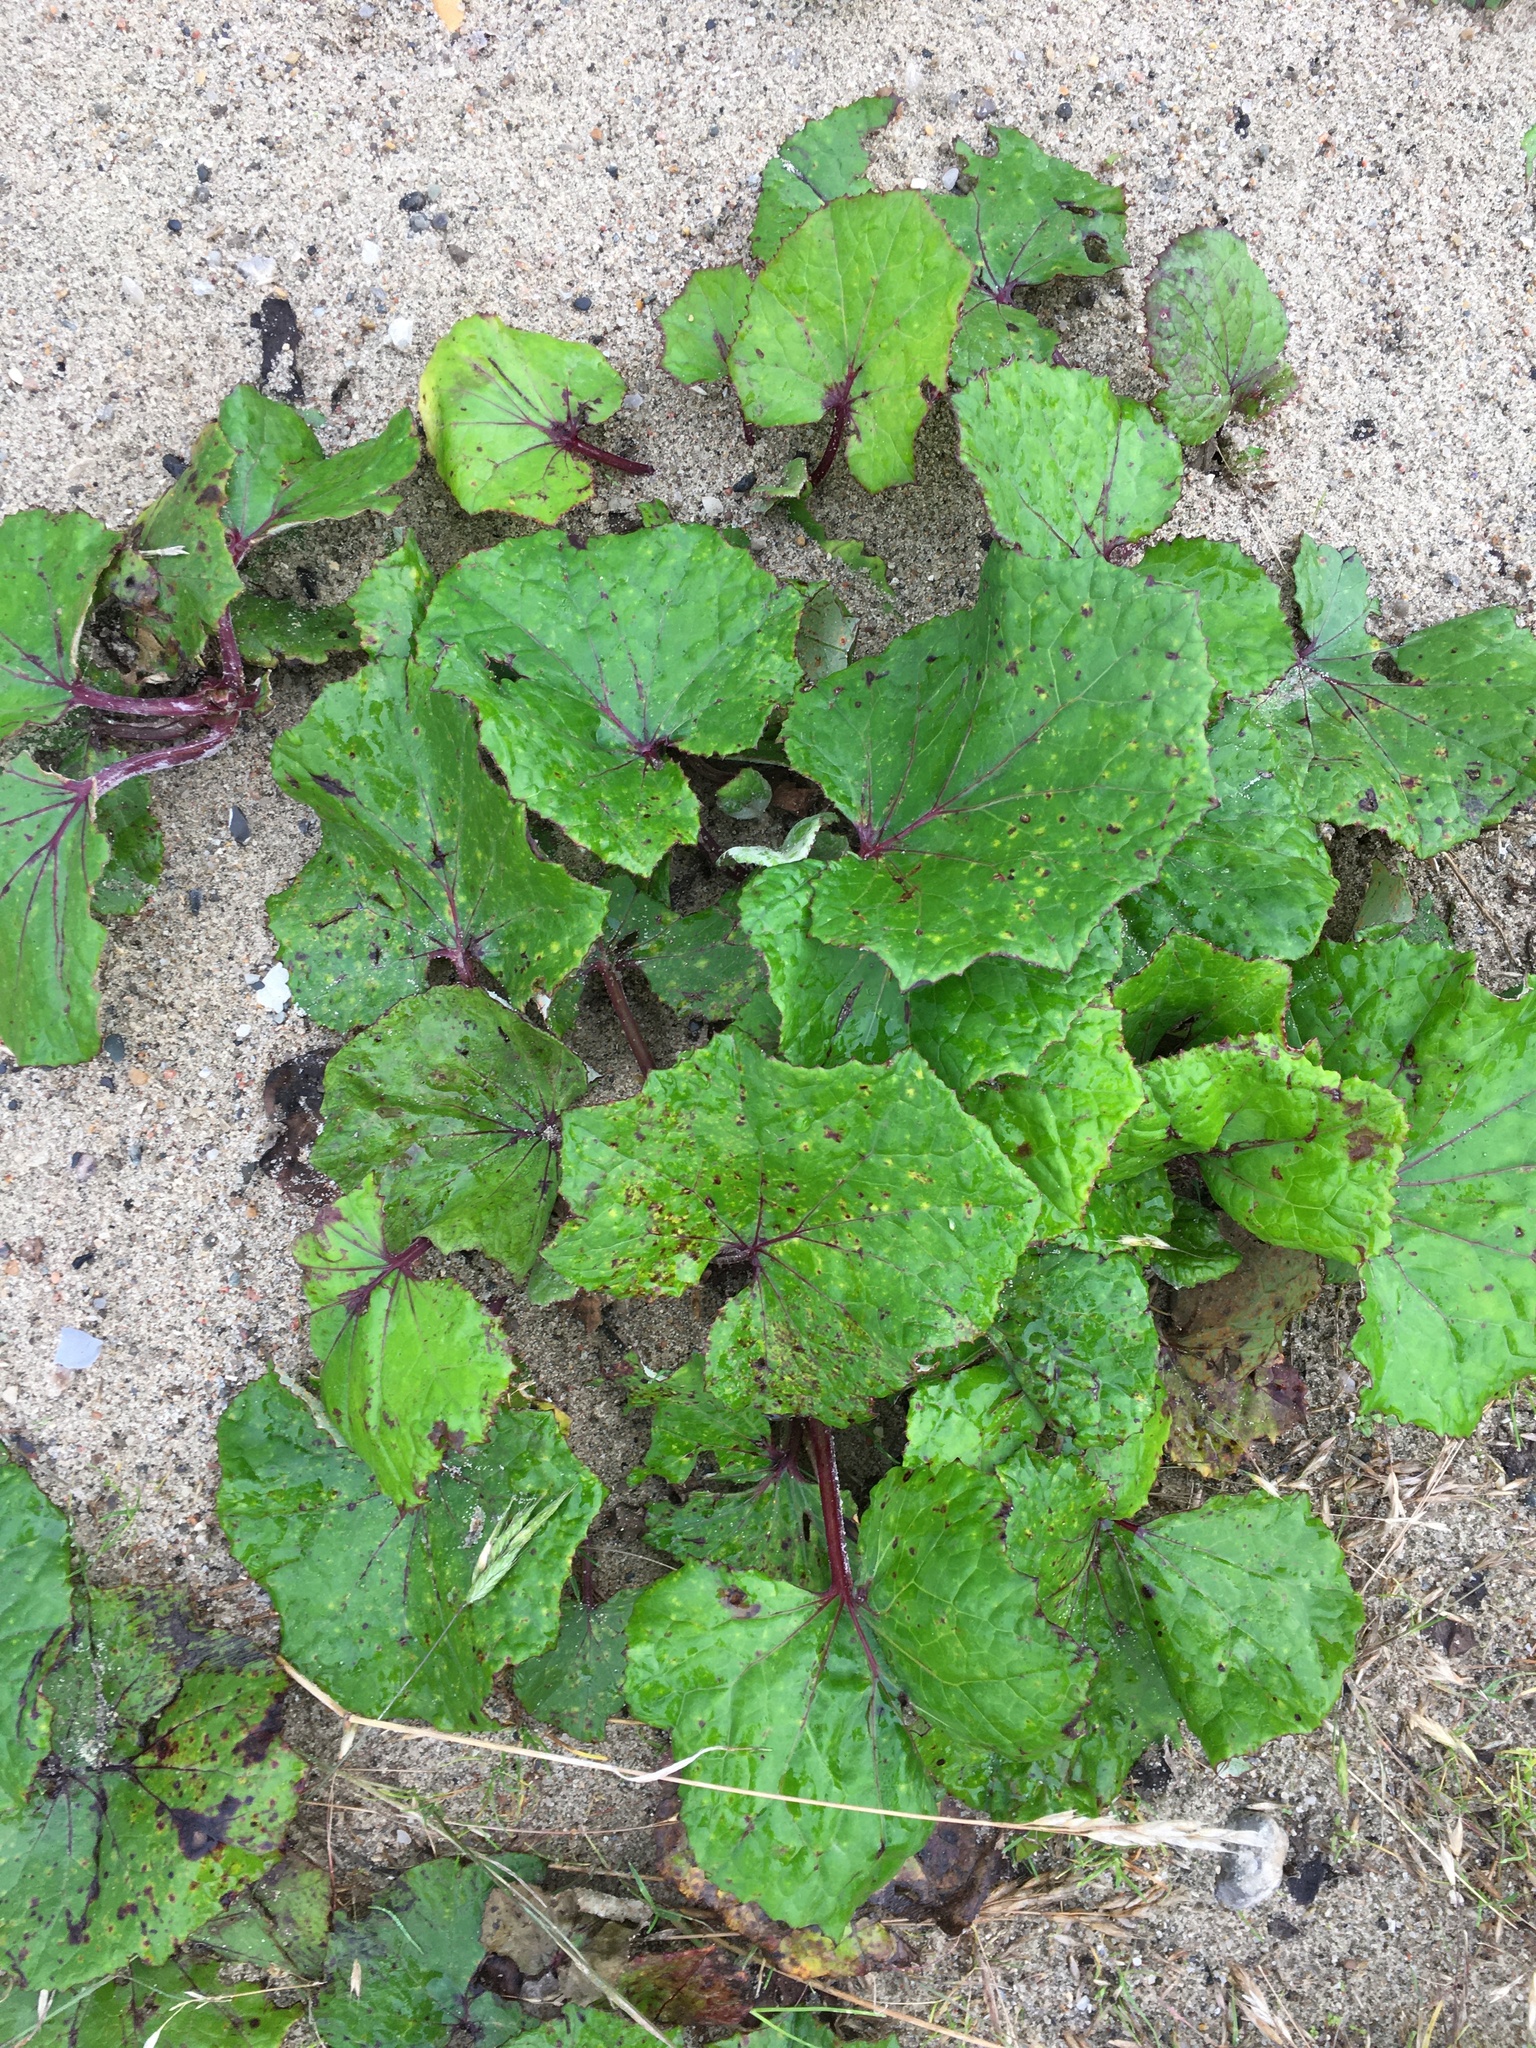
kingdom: Plantae
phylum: Tracheophyta
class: Magnoliopsida
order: Asterales
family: Asteraceae
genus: Tussilago
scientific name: Tussilago farfara
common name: Coltsfoot
